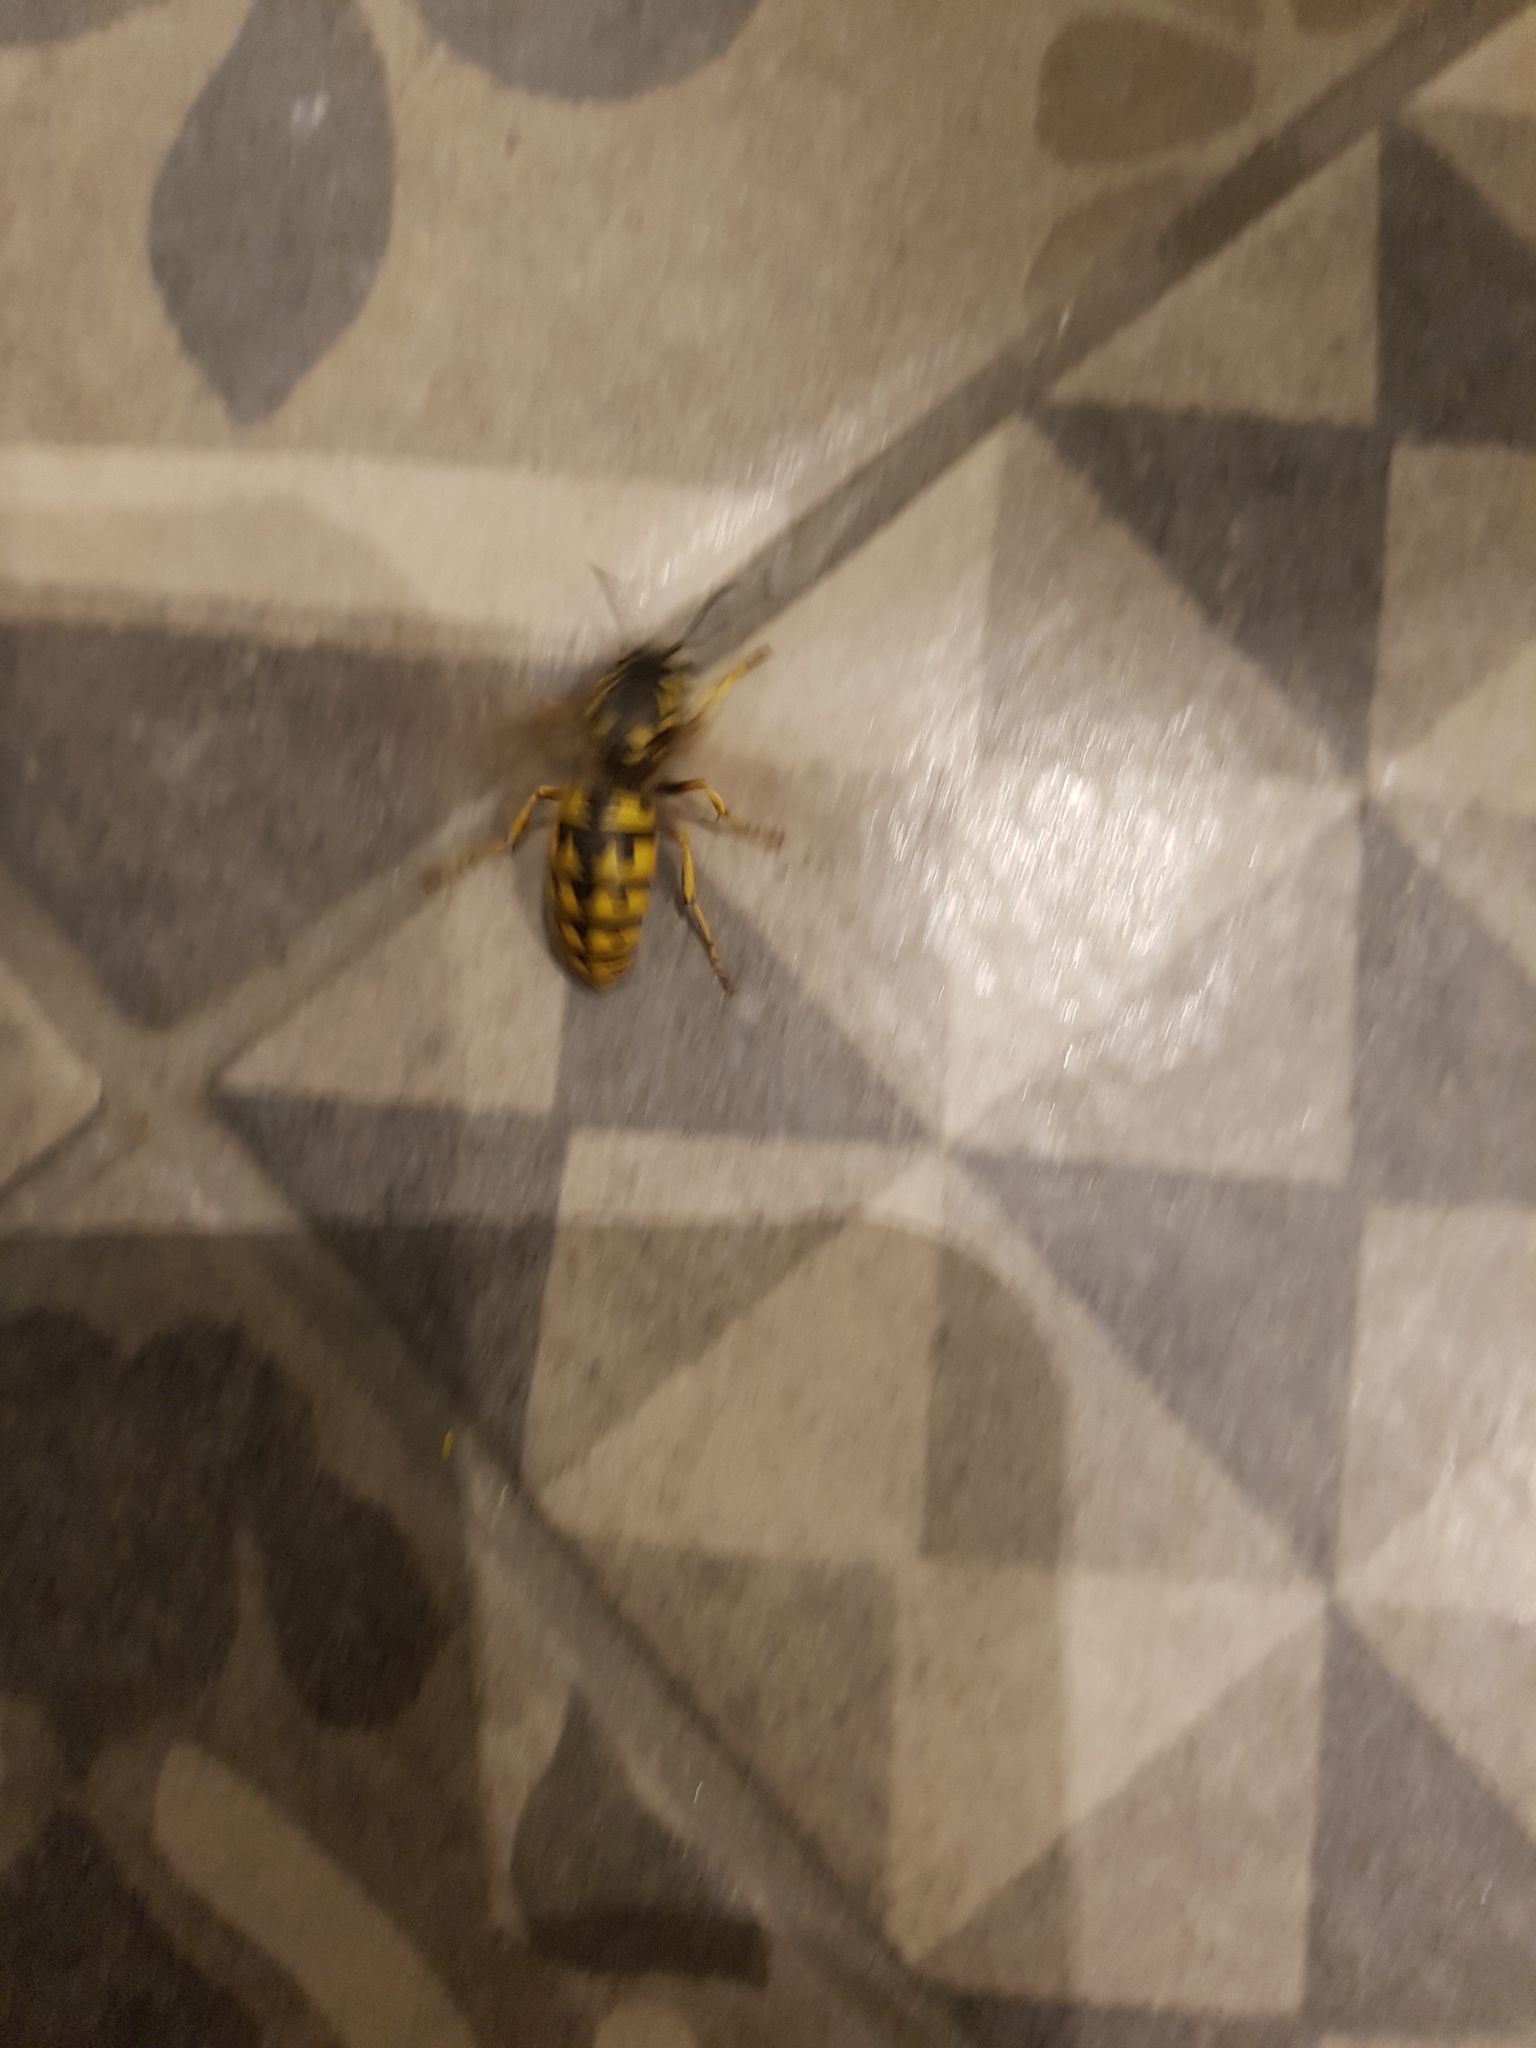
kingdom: Animalia
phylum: Arthropoda
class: Insecta
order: Hymenoptera
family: Vespidae
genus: Vespula
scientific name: Vespula germanica
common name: German wasp
